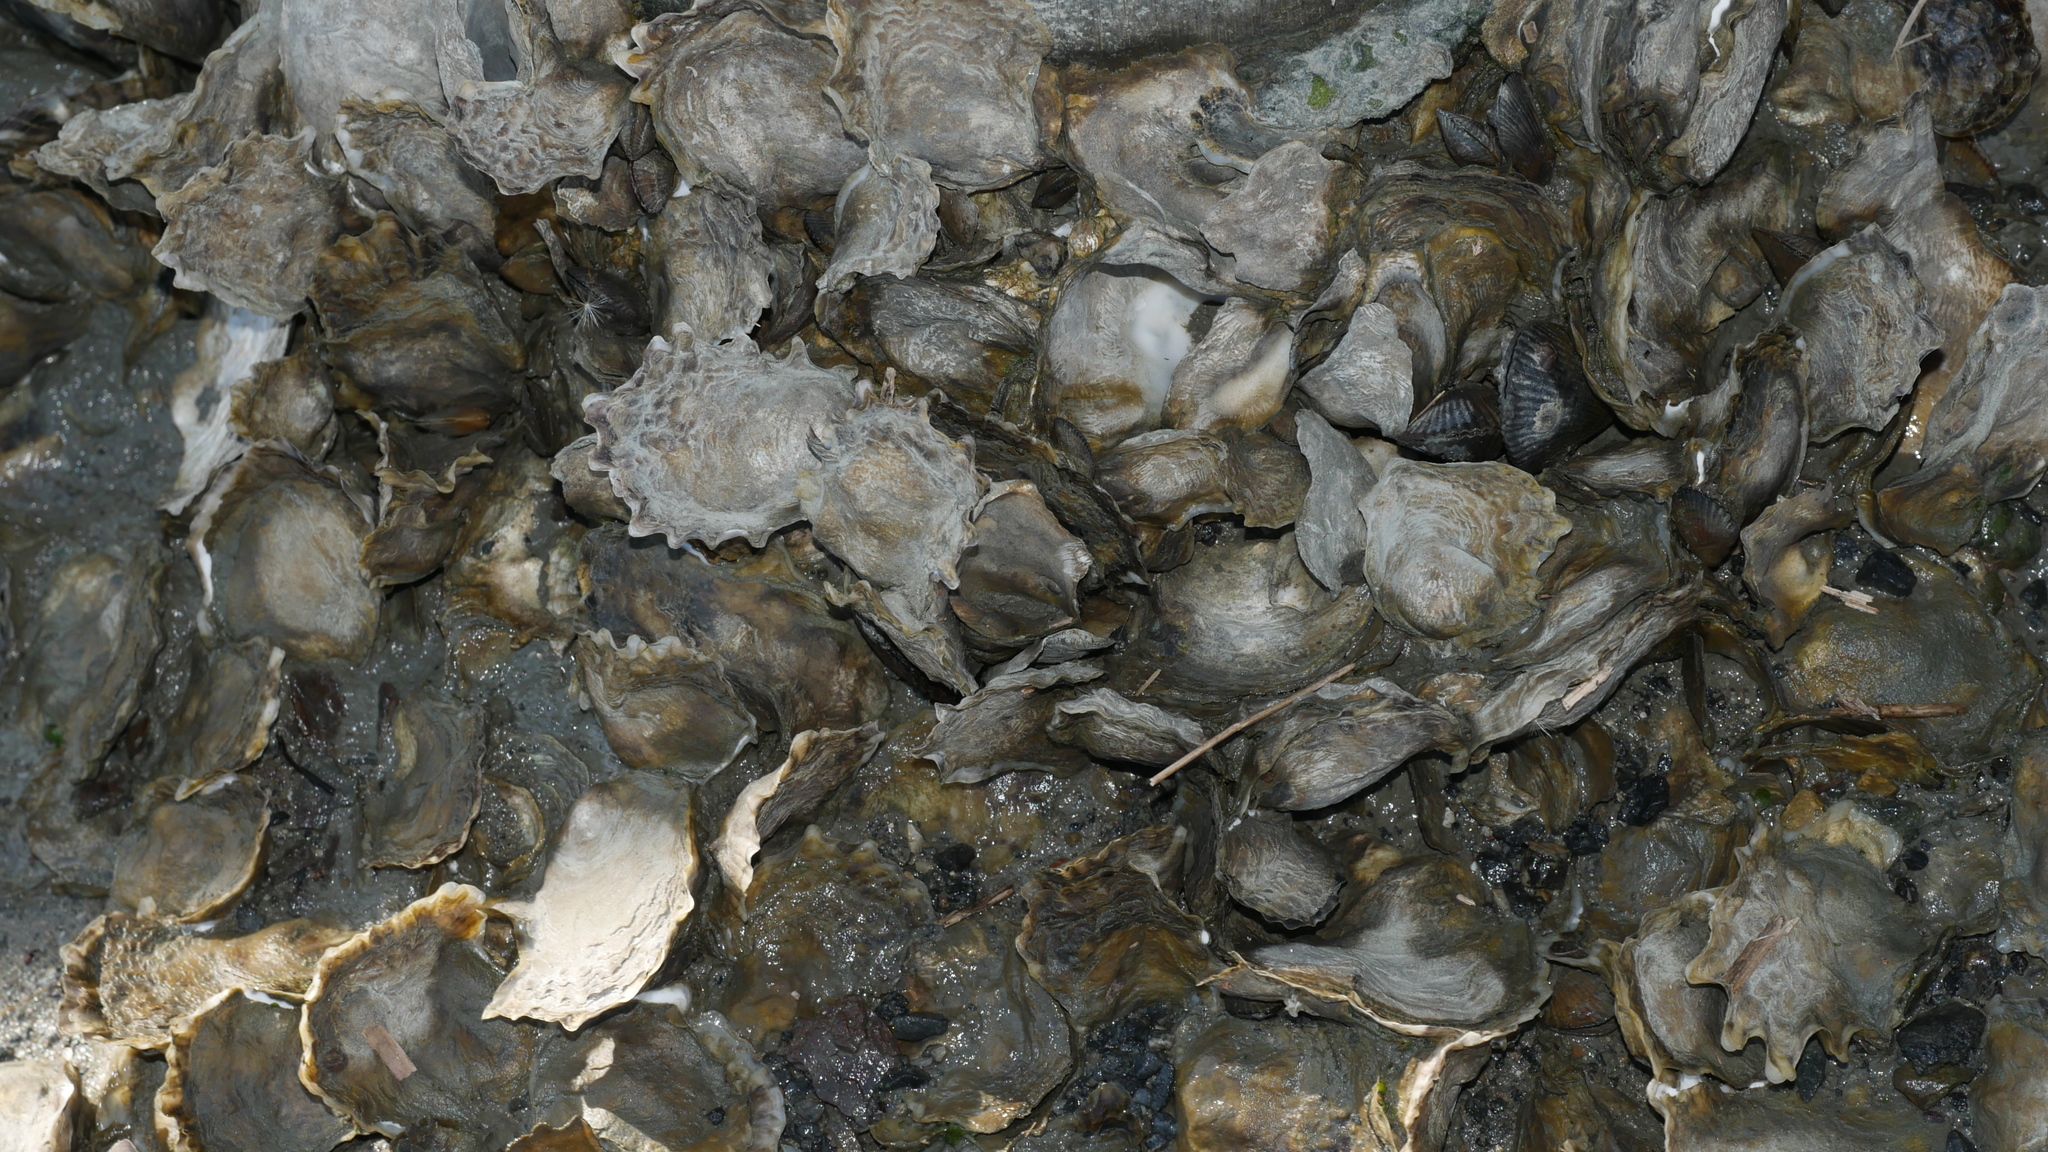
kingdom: Animalia
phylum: Mollusca
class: Bivalvia
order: Ostreida
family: Ostreidae
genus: Crassostrea
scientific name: Crassostrea virginica
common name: American oyster
